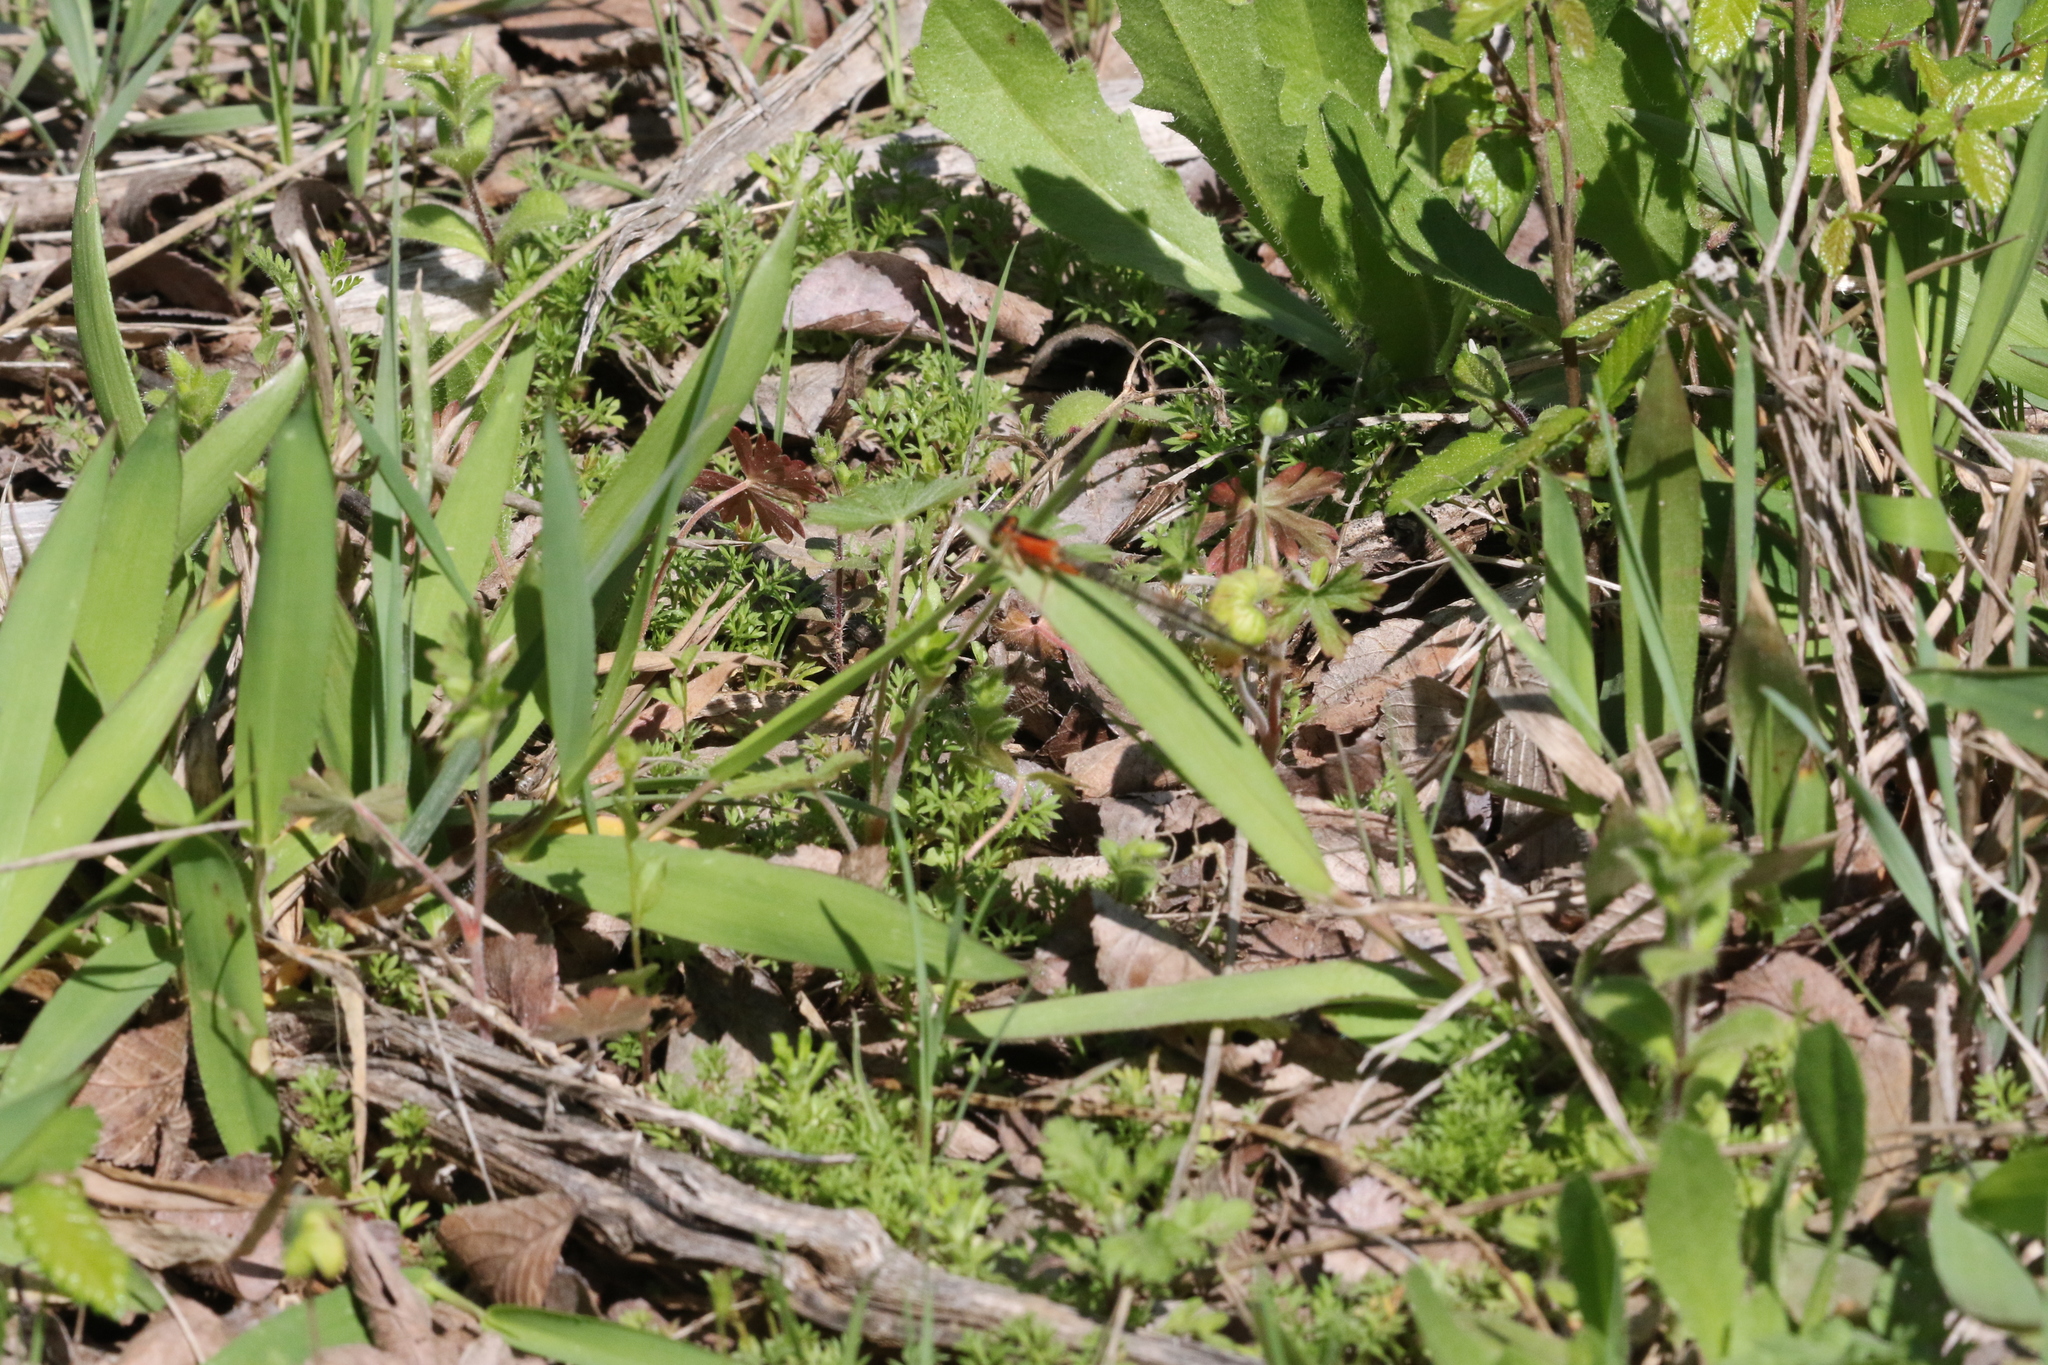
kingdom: Animalia
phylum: Arthropoda
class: Insecta
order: Odonata
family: Coenagrionidae
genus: Ischnura
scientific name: Ischnura ramburii
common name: Rambur's forktail
